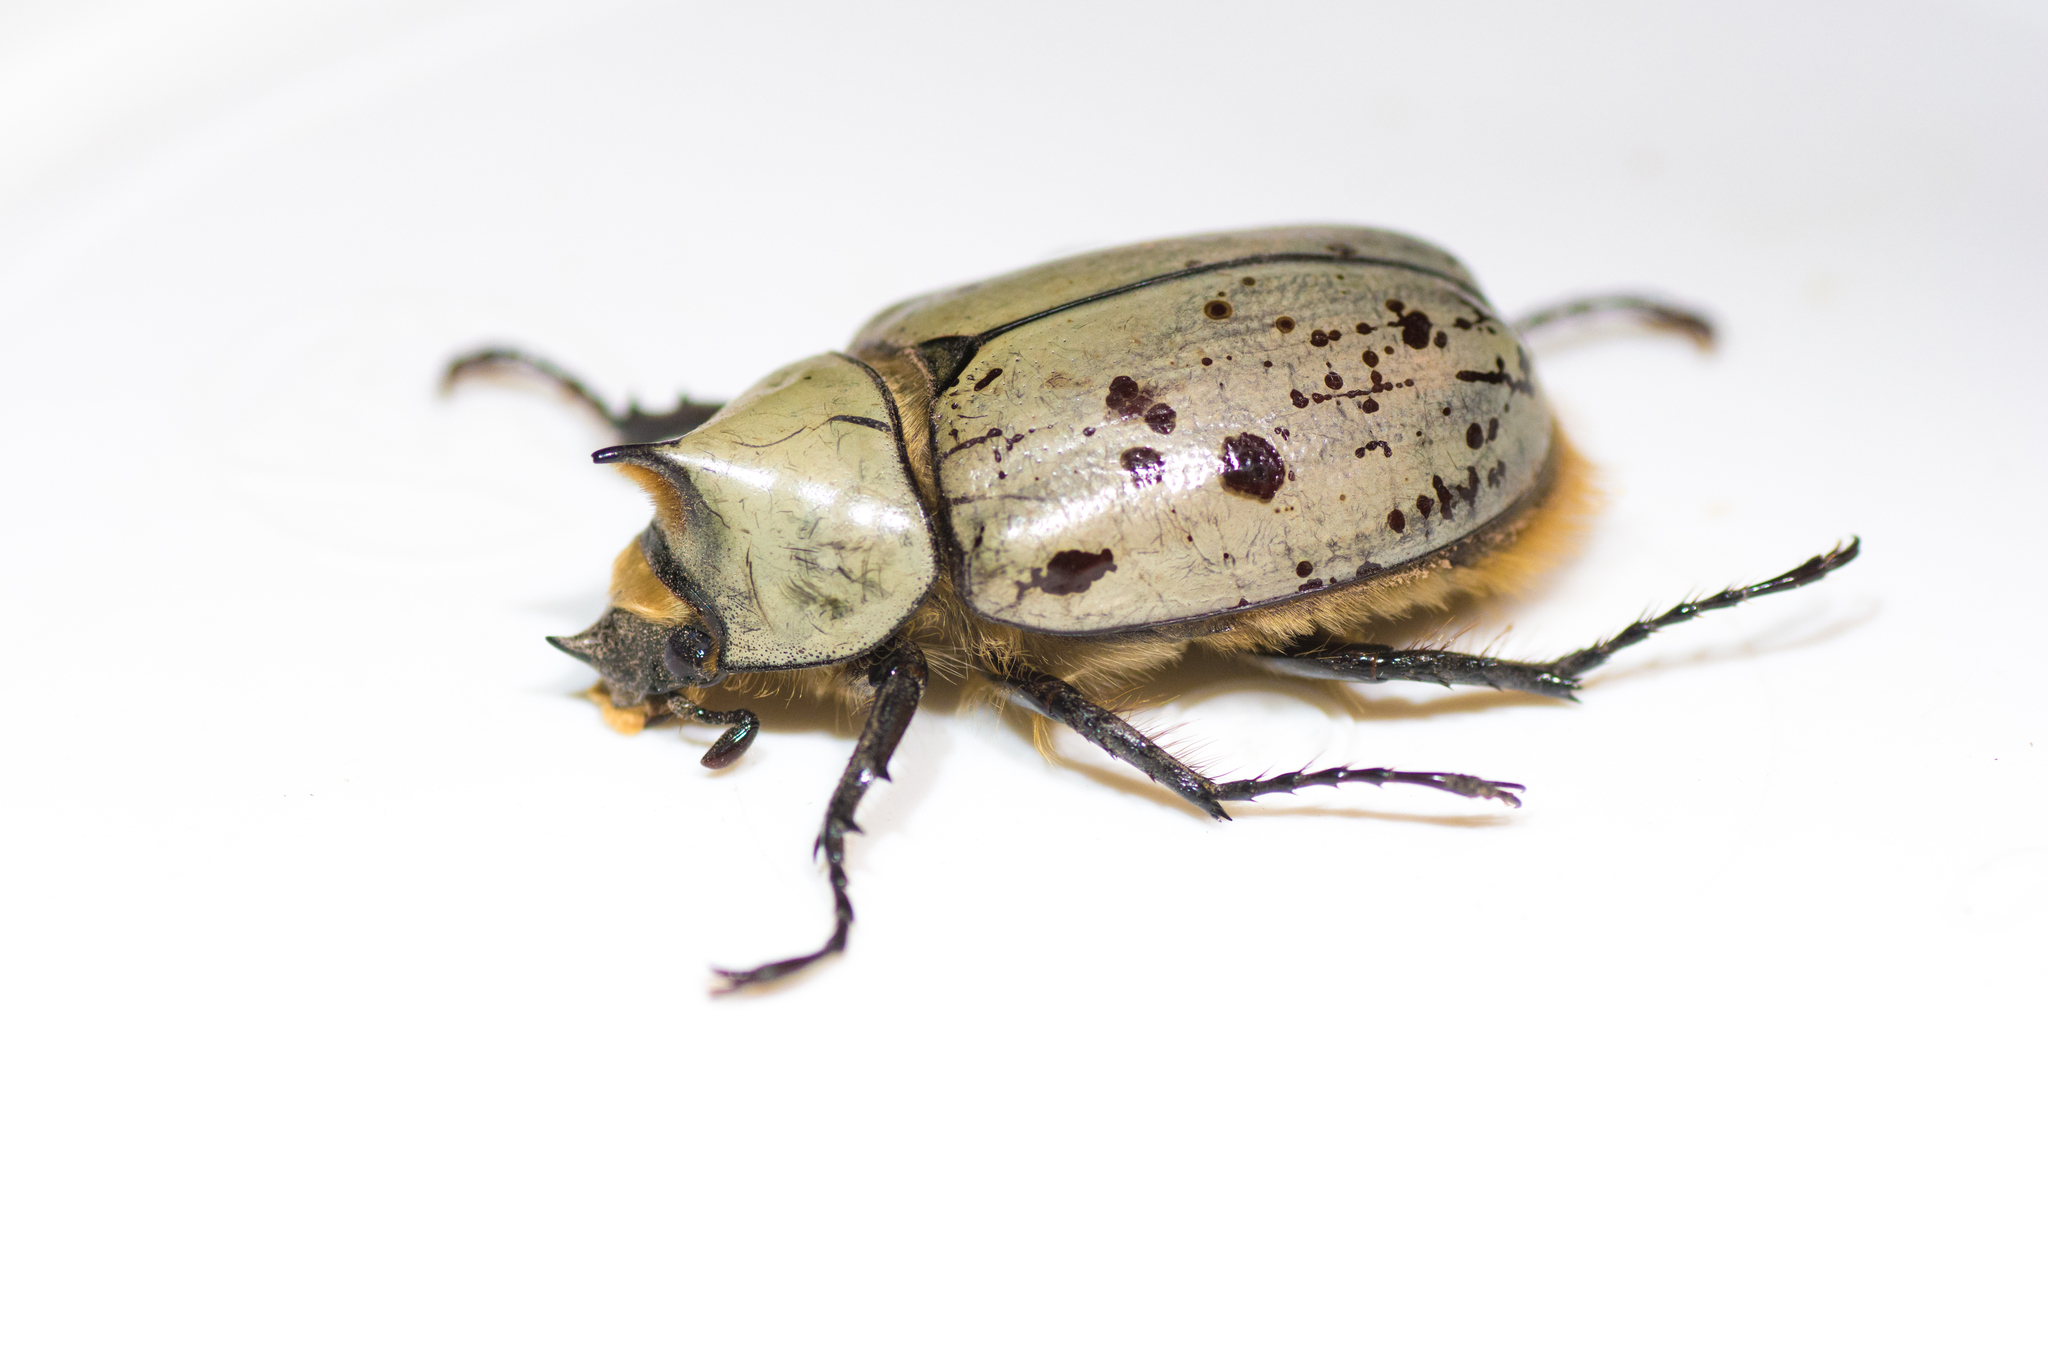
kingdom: Animalia
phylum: Arthropoda
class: Insecta
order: Coleoptera
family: Scarabaeidae
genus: Dynastes
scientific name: Dynastes grantii
